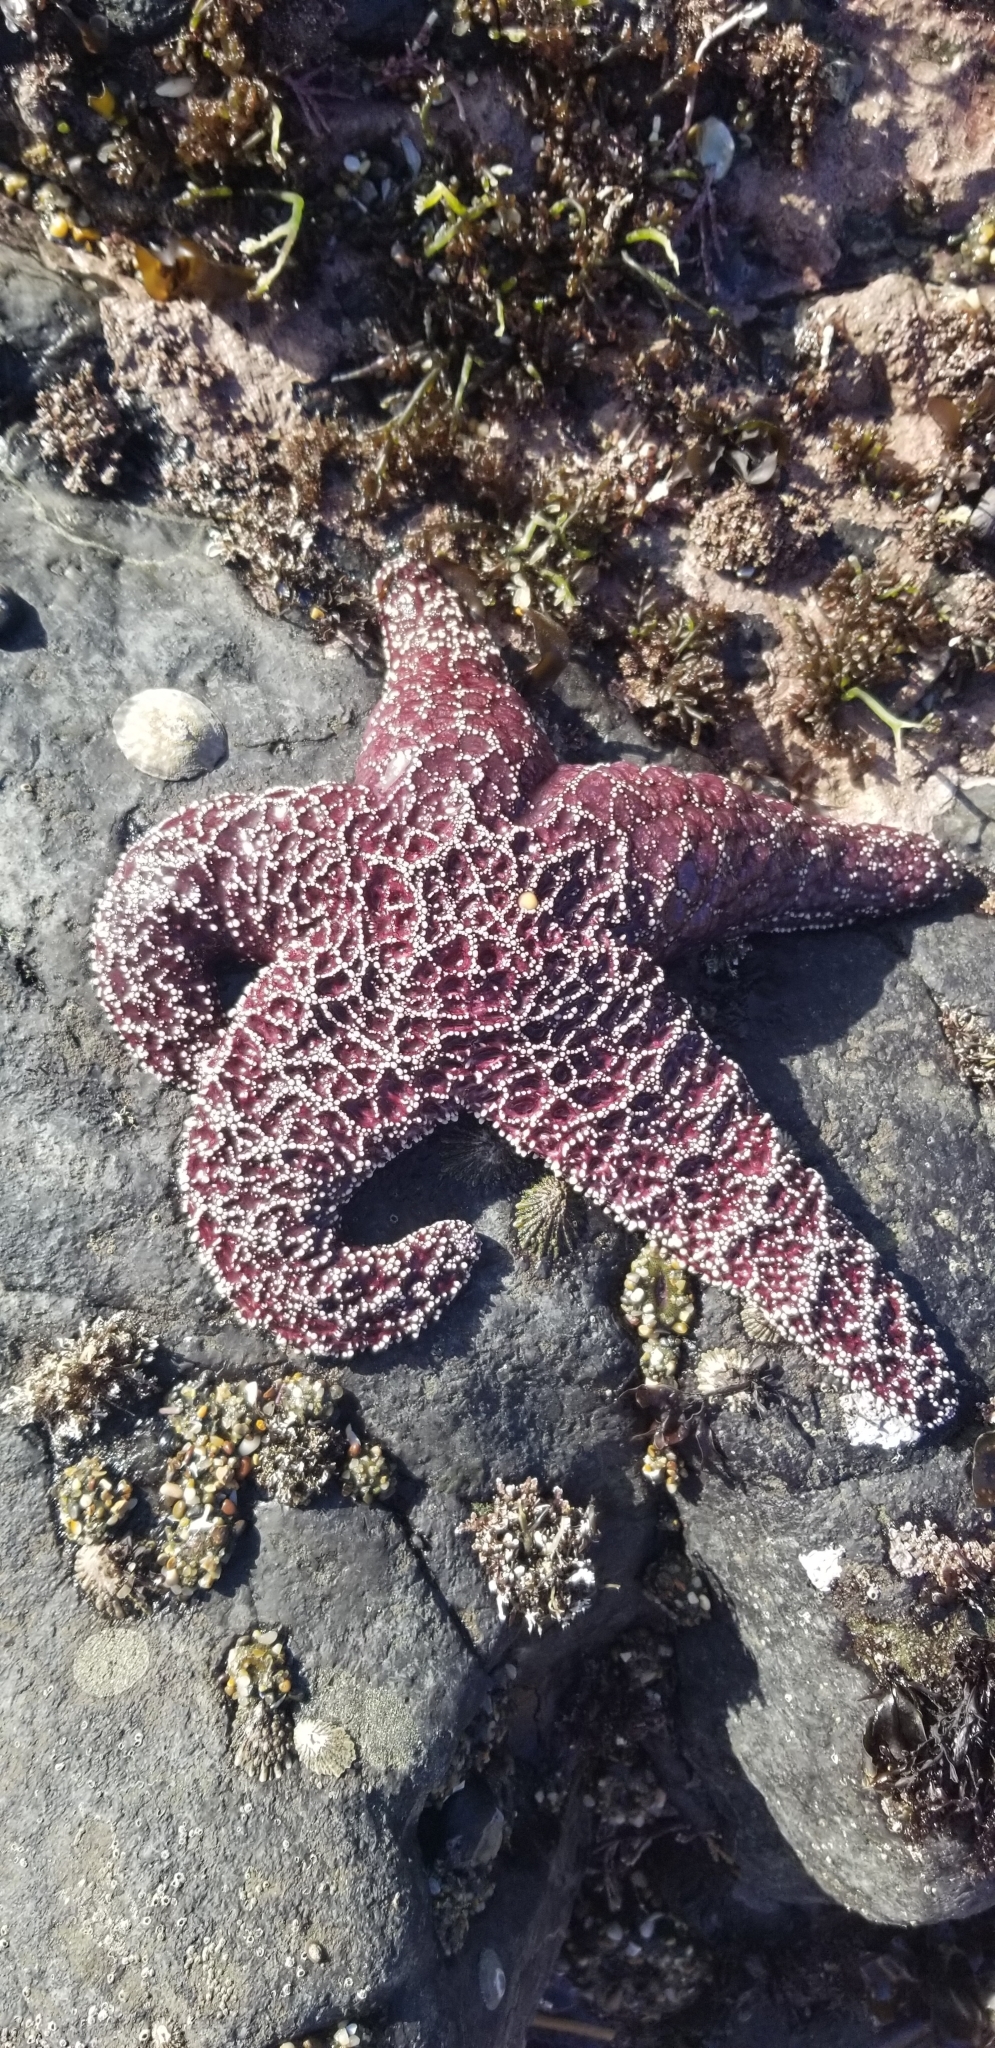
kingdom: Animalia
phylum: Echinodermata
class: Asteroidea
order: Forcipulatida
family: Asteriidae
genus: Pisaster
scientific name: Pisaster ochraceus
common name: Ochre stars
